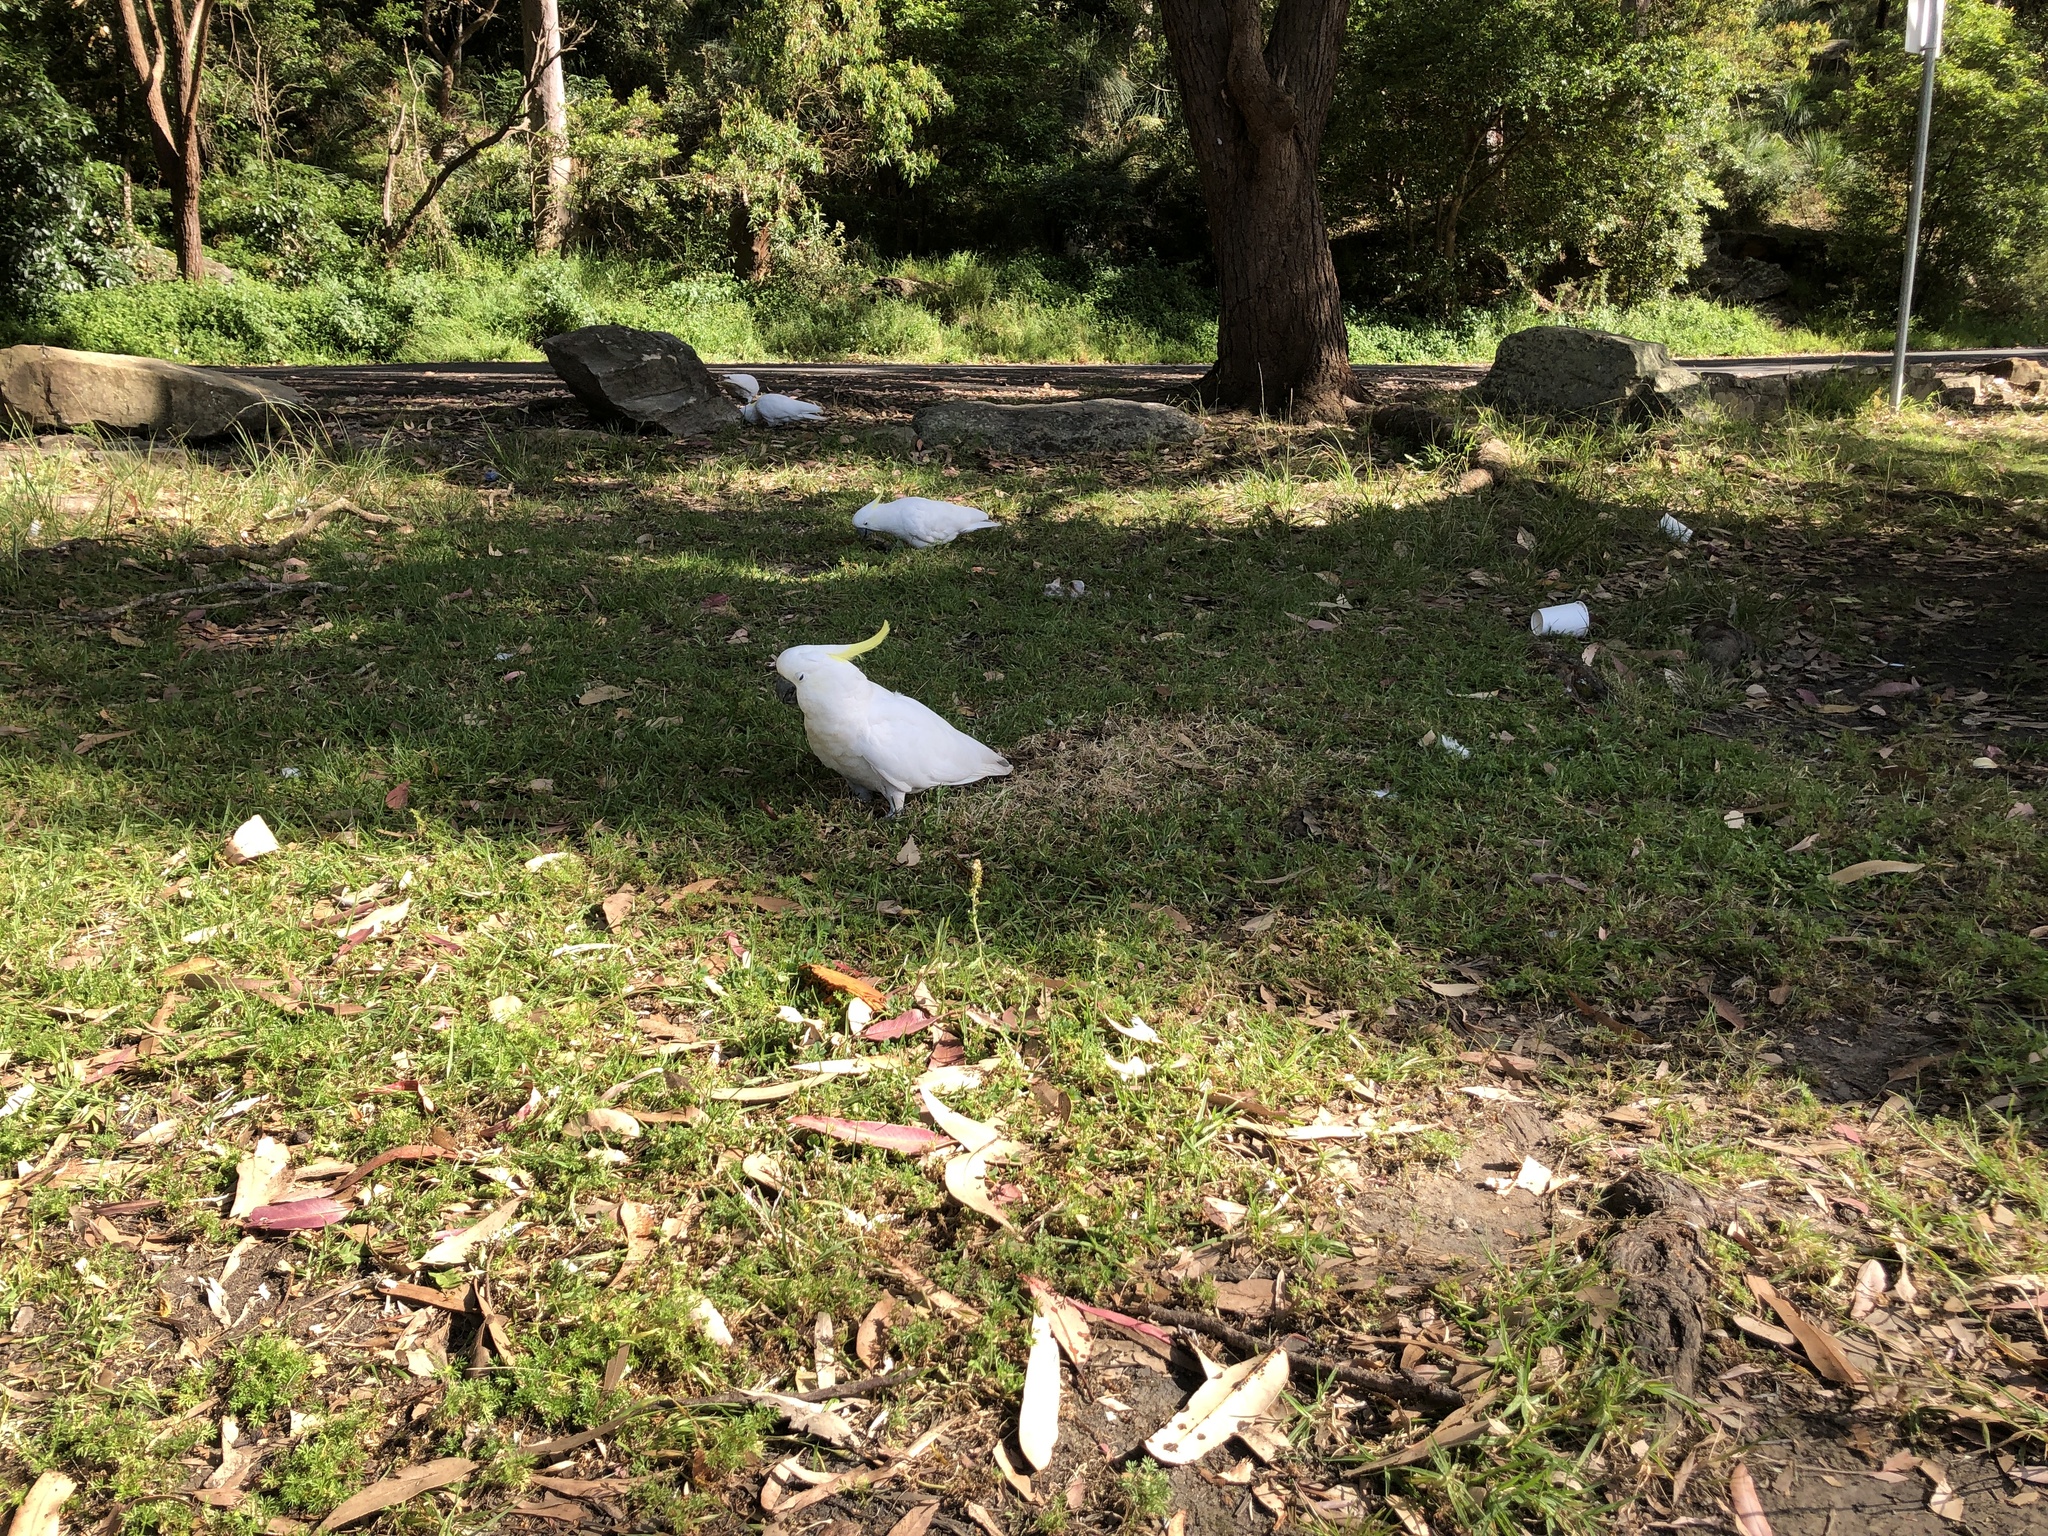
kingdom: Animalia
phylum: Chordata
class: Aves
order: Psittaciformes
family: Psittacidae
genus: Cacatua
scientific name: Cacatua galerita
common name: Sulphur-crested cockatoo
